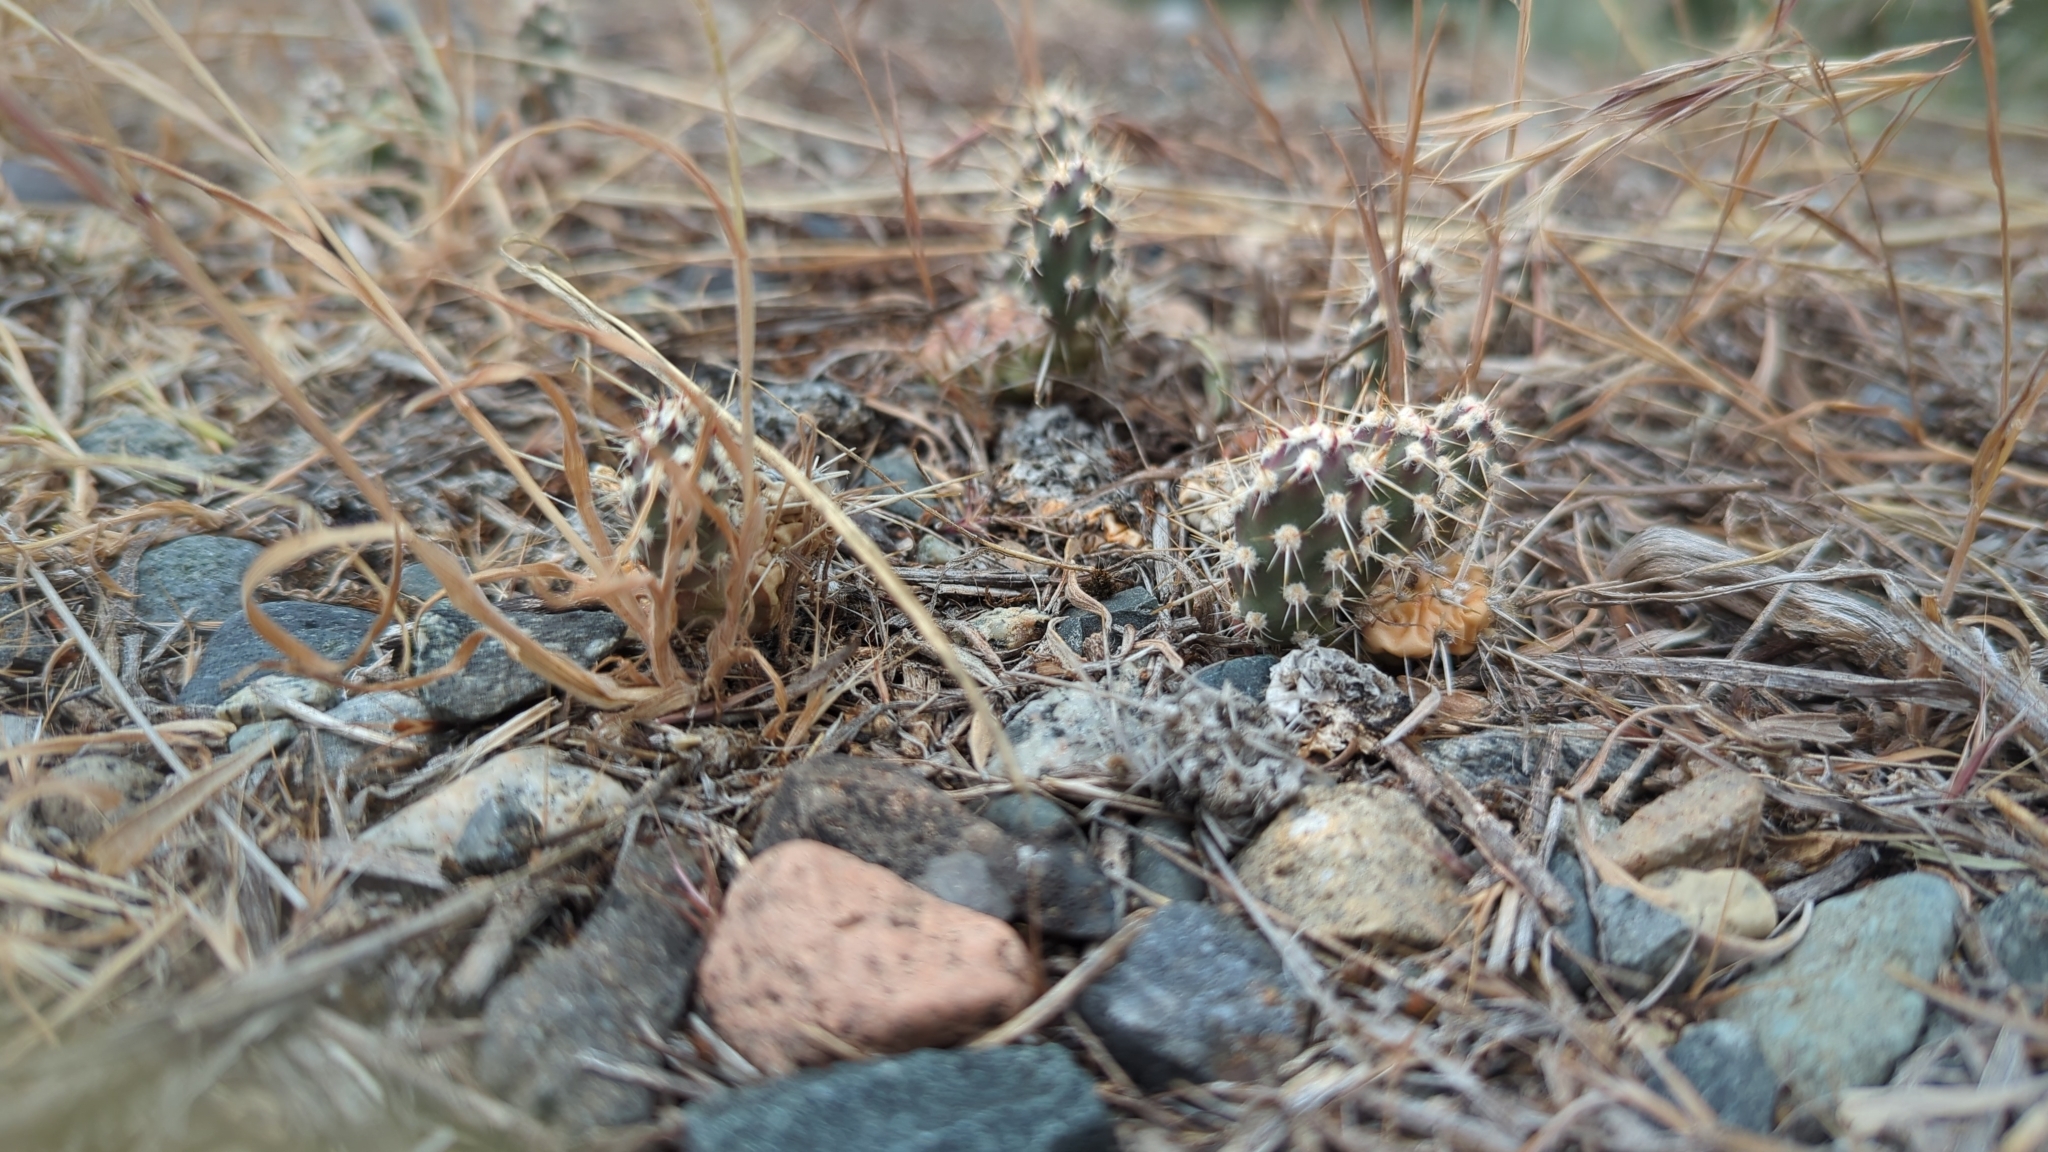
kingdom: Plantae
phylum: Tracheophyta
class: Magnoliopsida
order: Caryophyllales
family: Cactaceae
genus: Opuntia
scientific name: Opuntia fragilis
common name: Brittle cactus
